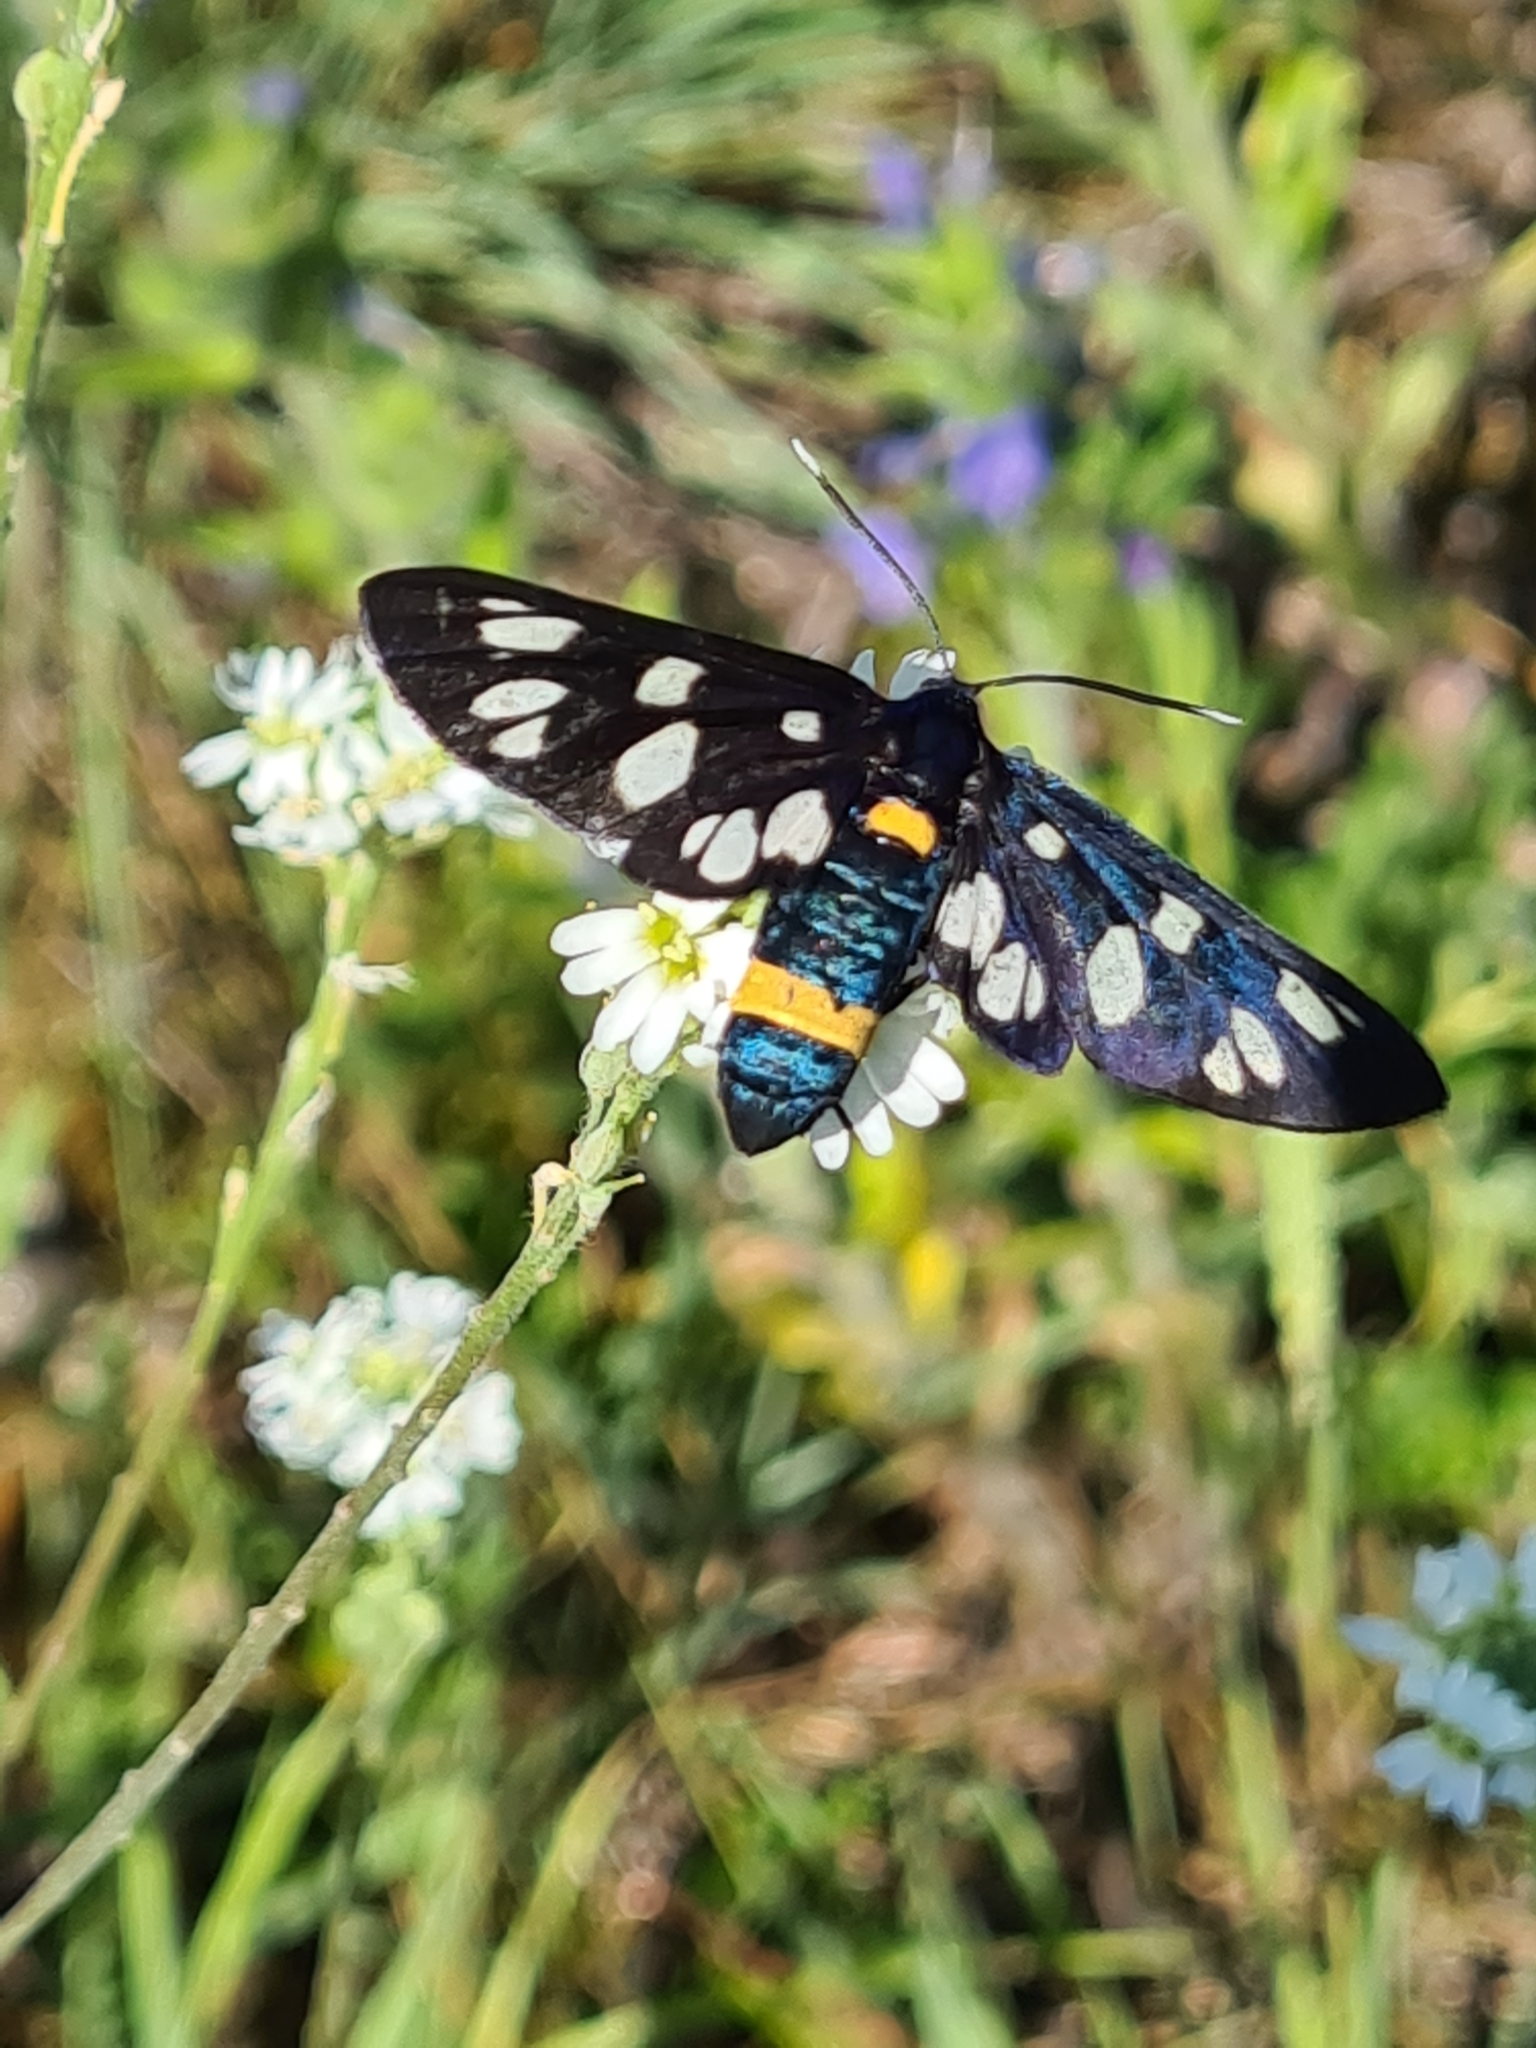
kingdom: Animalia
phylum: Arthropoda
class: Insecta
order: Lepidoptera
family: Erebidae
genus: Amata
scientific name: Amata phegea
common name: Nine-spotted
